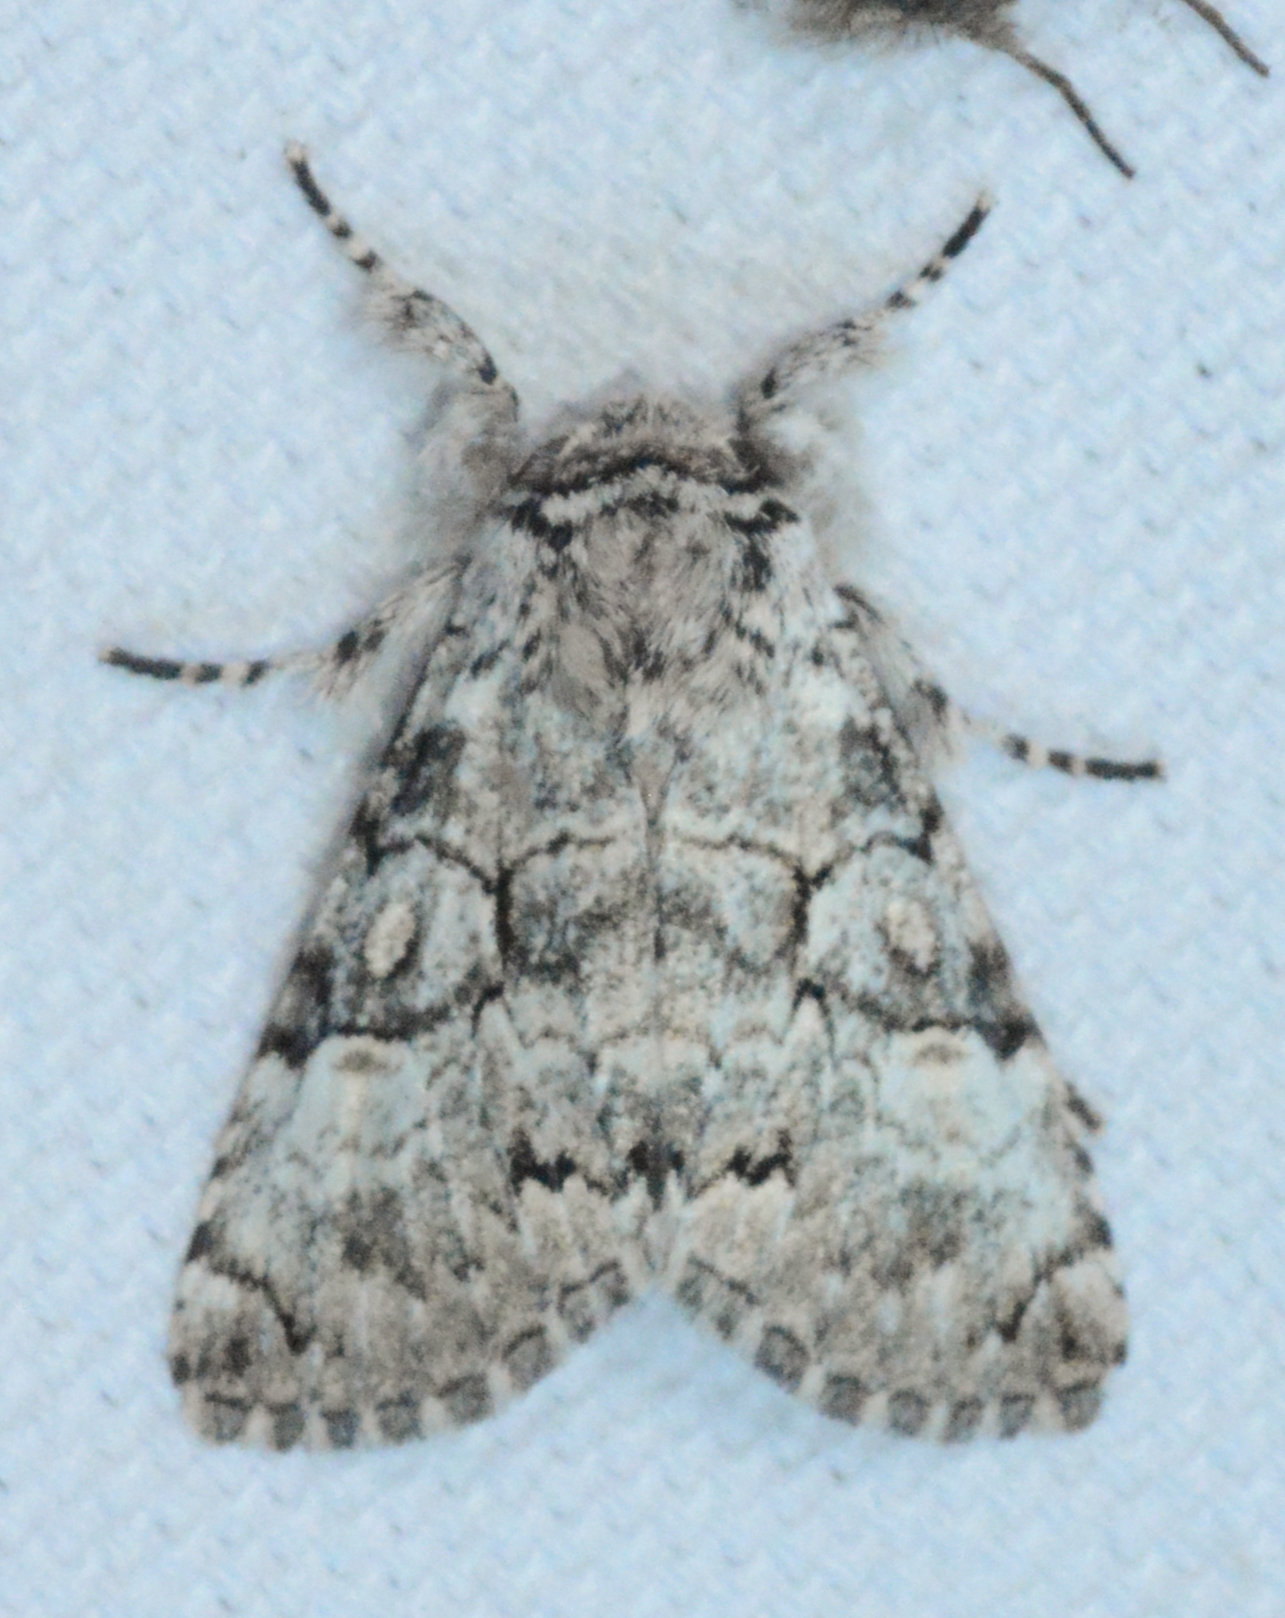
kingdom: Animalia
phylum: Arthropoda
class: Insecta
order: Lepidoptera
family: Noctuidae
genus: Charadra
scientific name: Charadra deridens
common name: Marbled tuffet
